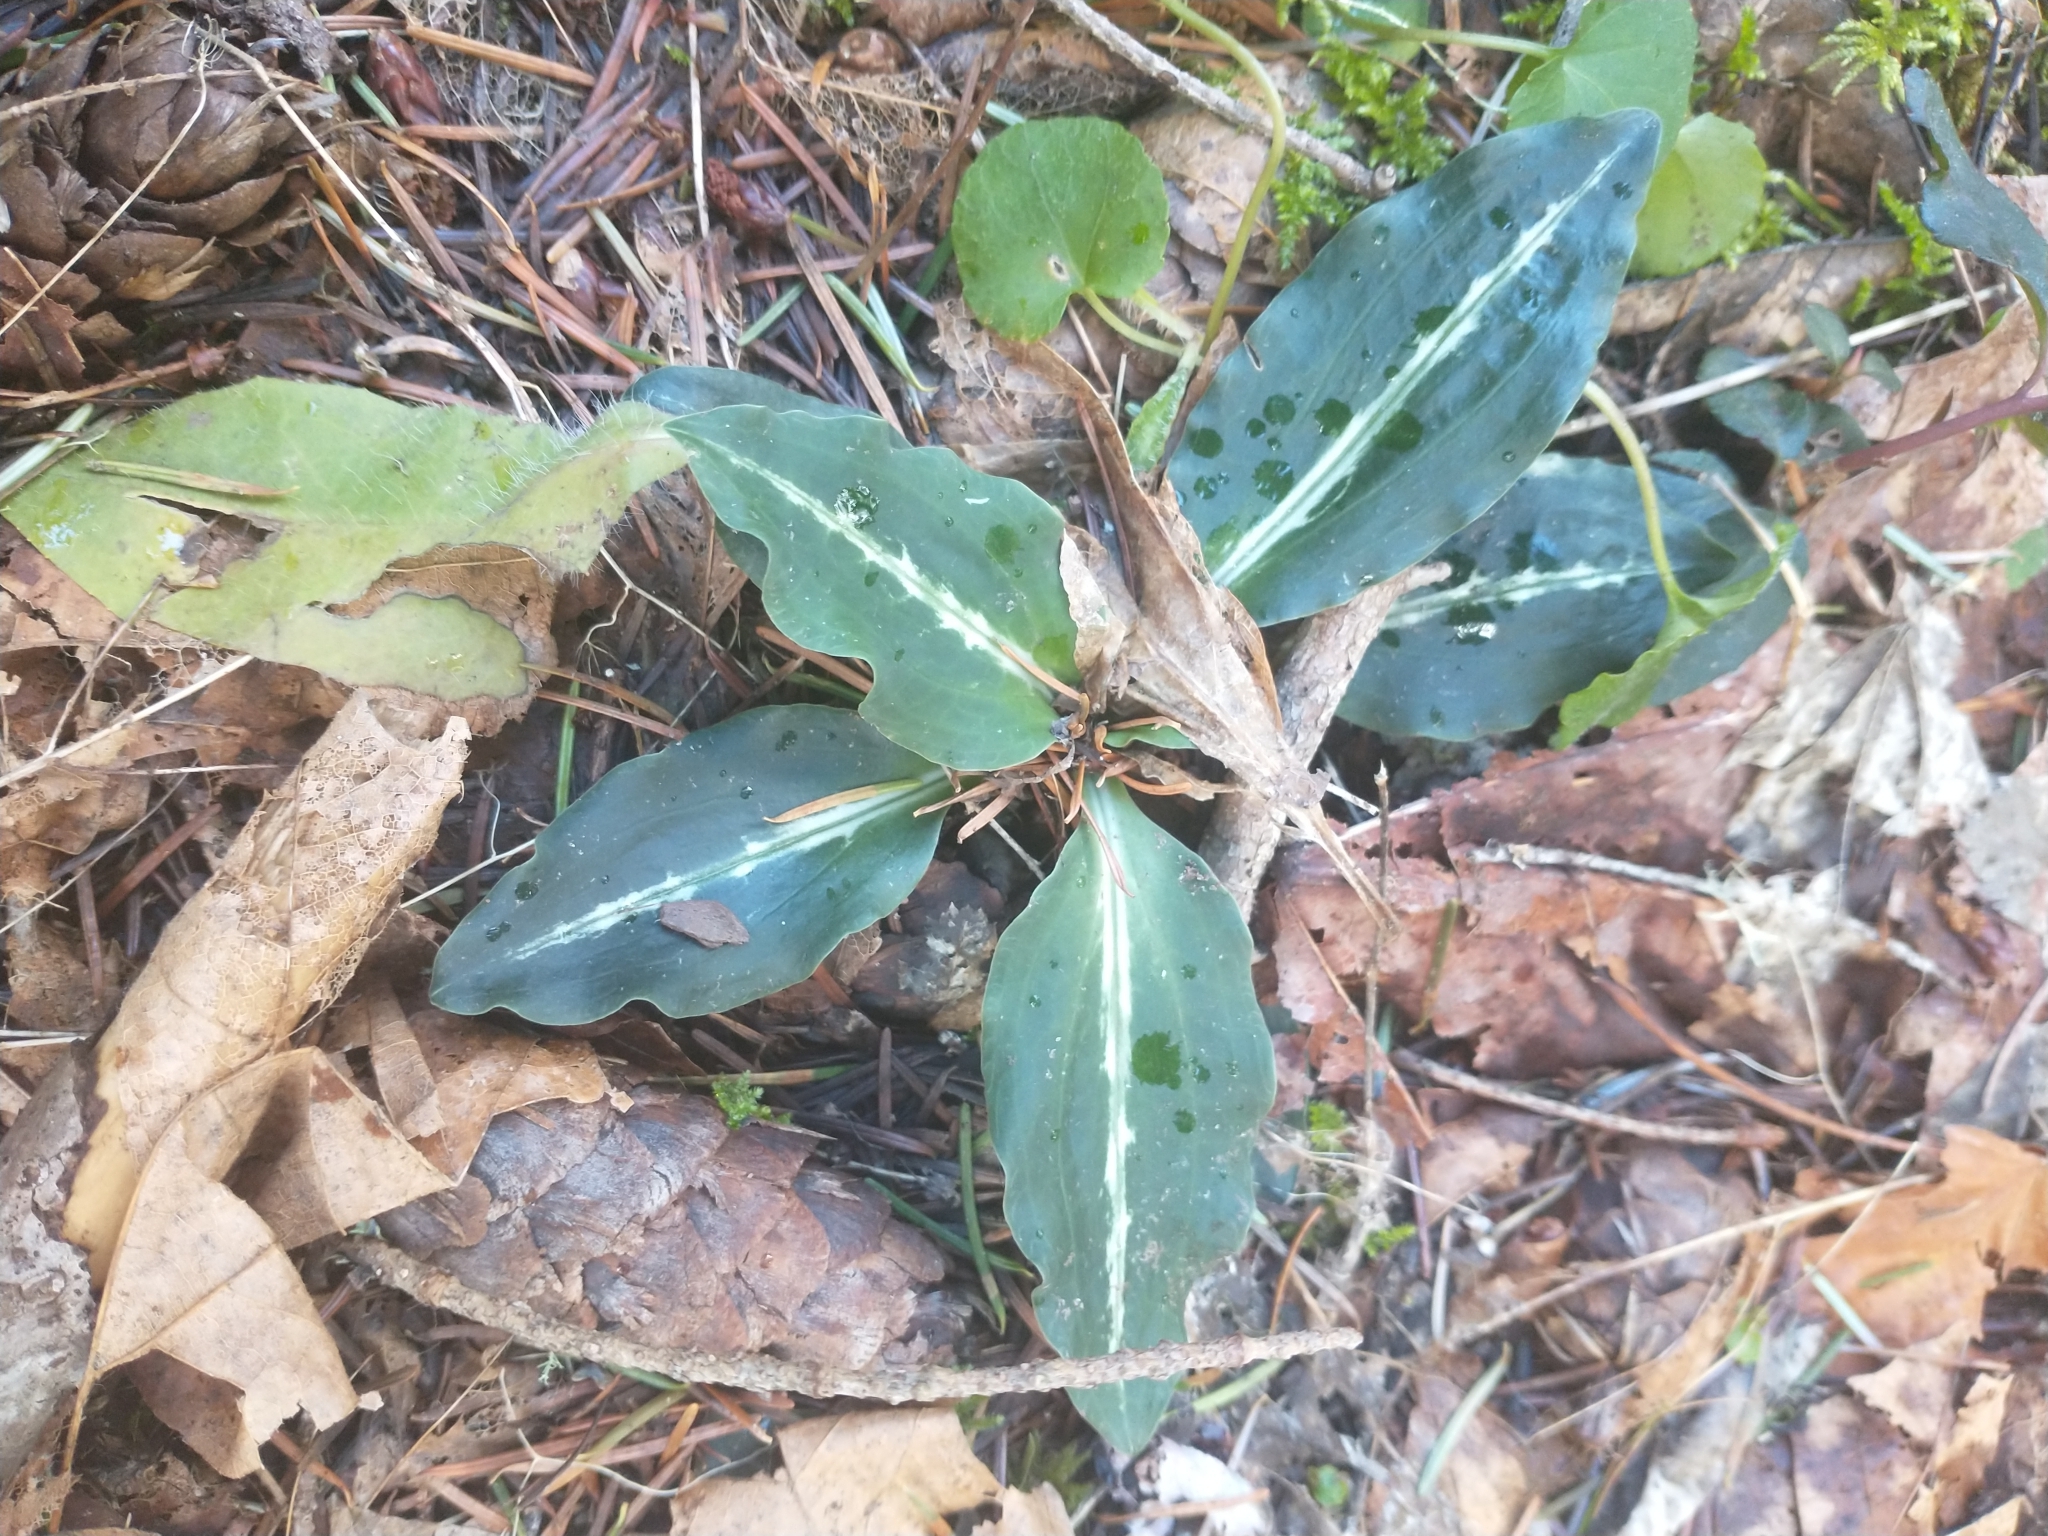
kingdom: Plantae
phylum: Tracheophyta
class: Liliopsida
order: Asparagales
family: Orchidaceae
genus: Goodyera
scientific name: Goodyera oblongifolia
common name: Giant rattlesnake-plantain
